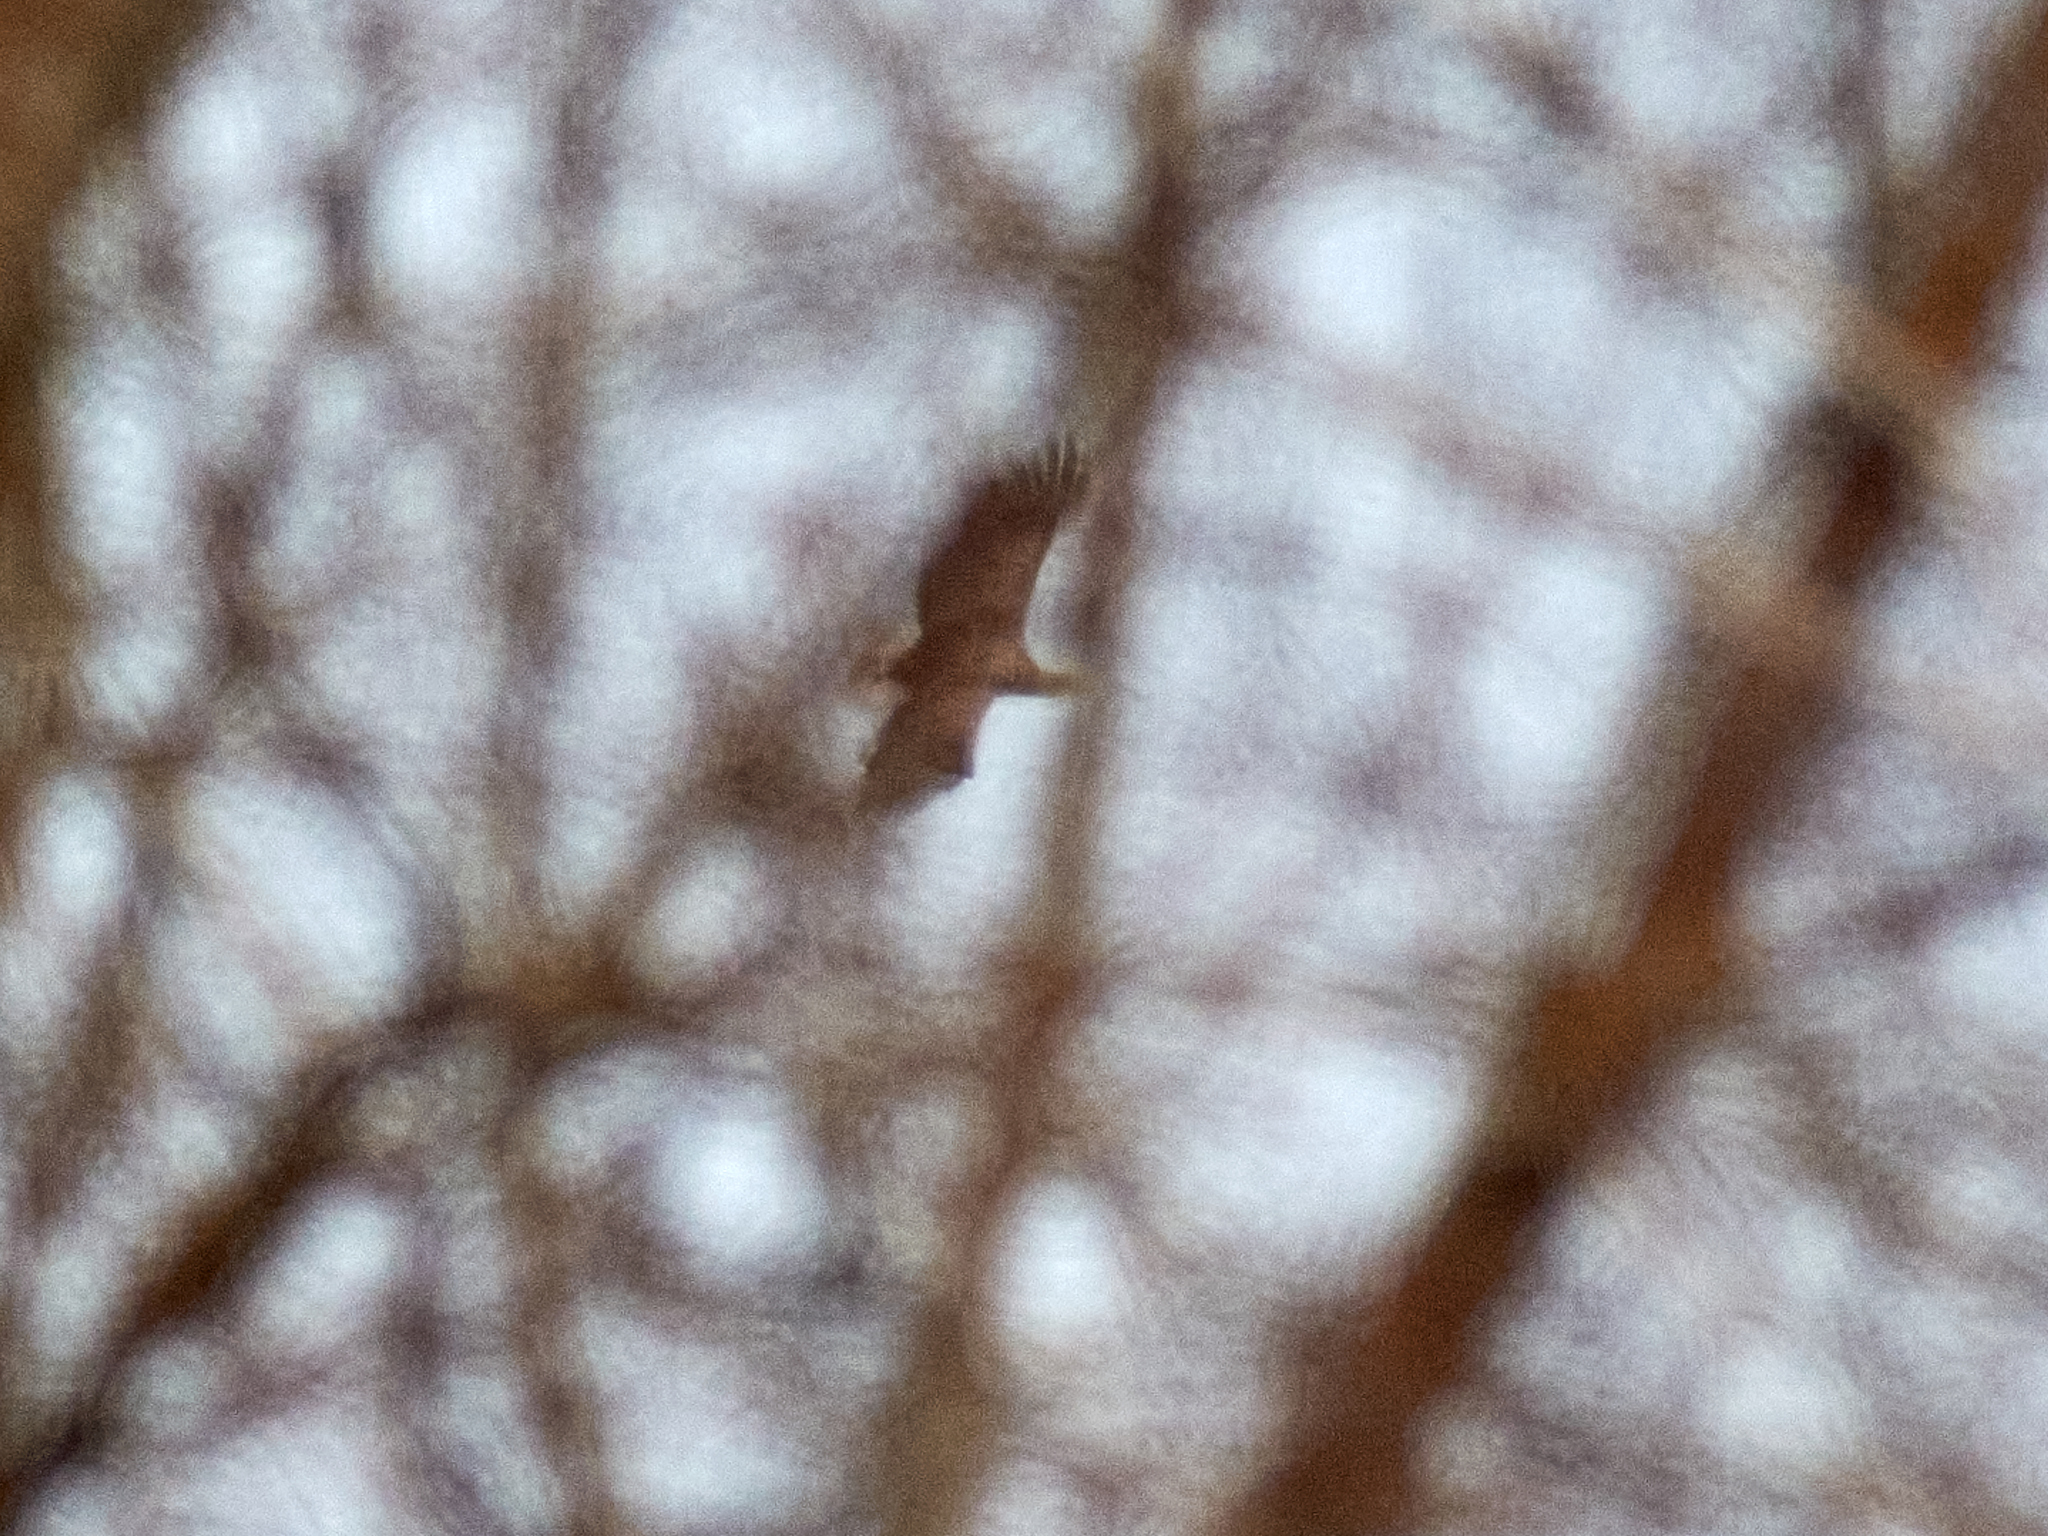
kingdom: Animalia
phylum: Chordata
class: Aves
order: Accipitriformes
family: Accipitridae
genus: Haliaeetus
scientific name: Haliaeetus albicilla
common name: White-tailed eagle
